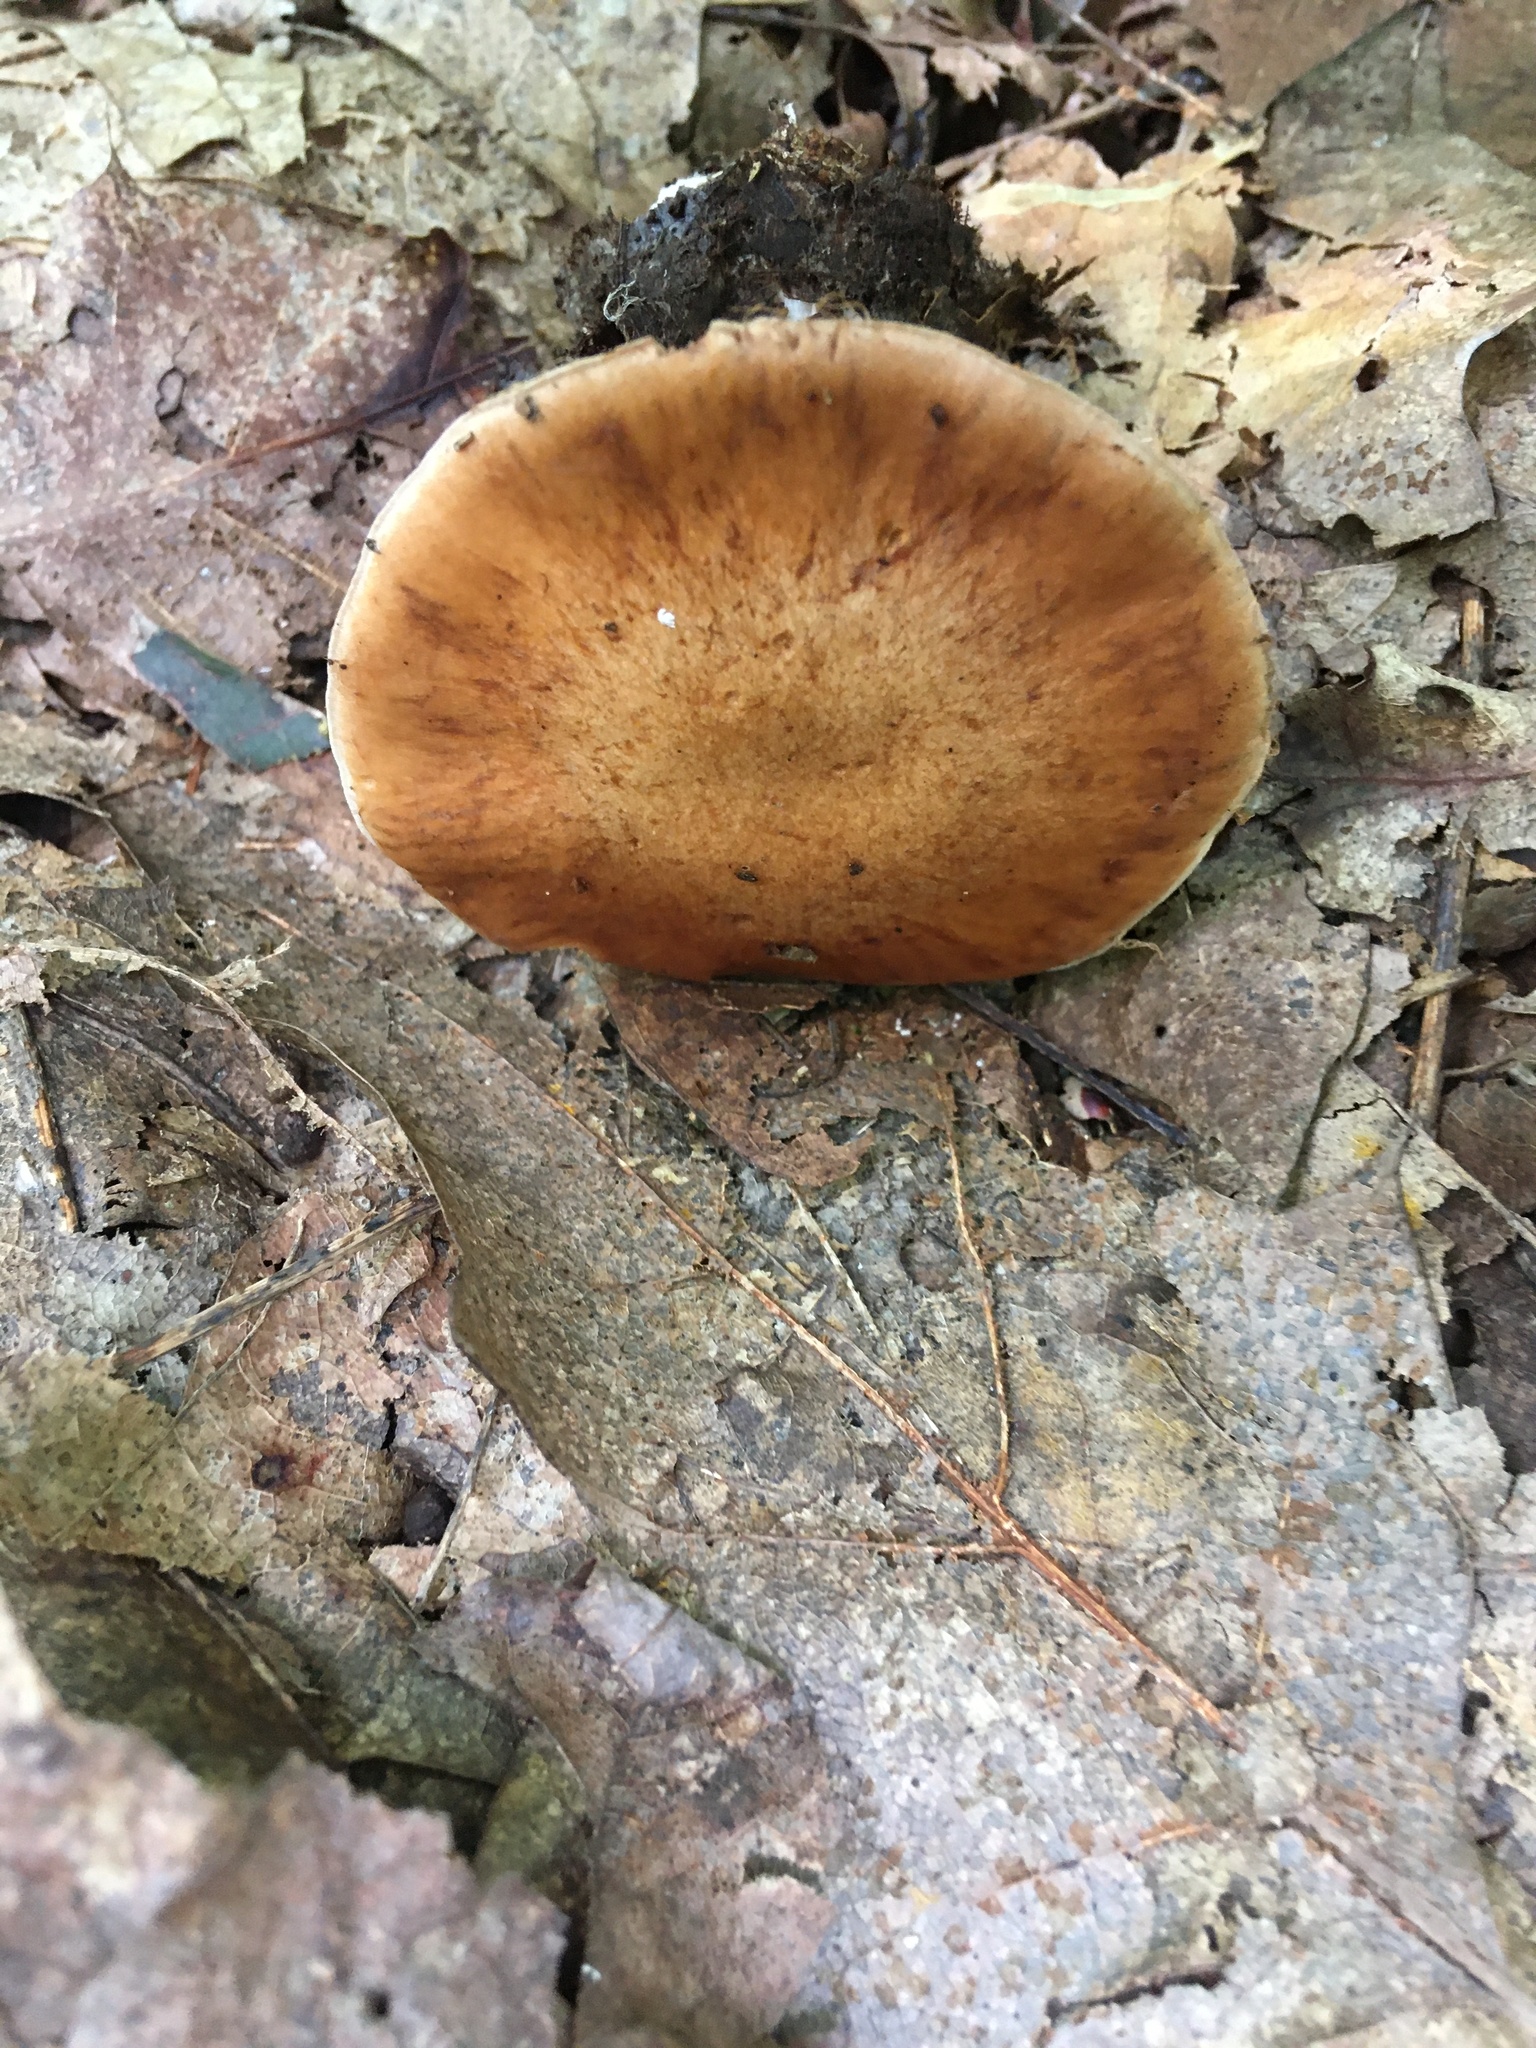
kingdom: Fungi
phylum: Basidiomycota
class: Agaricomycetes
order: Agaricales
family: Cortinariaceae
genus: Cortinarius
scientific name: Cortinarius quercophilus
